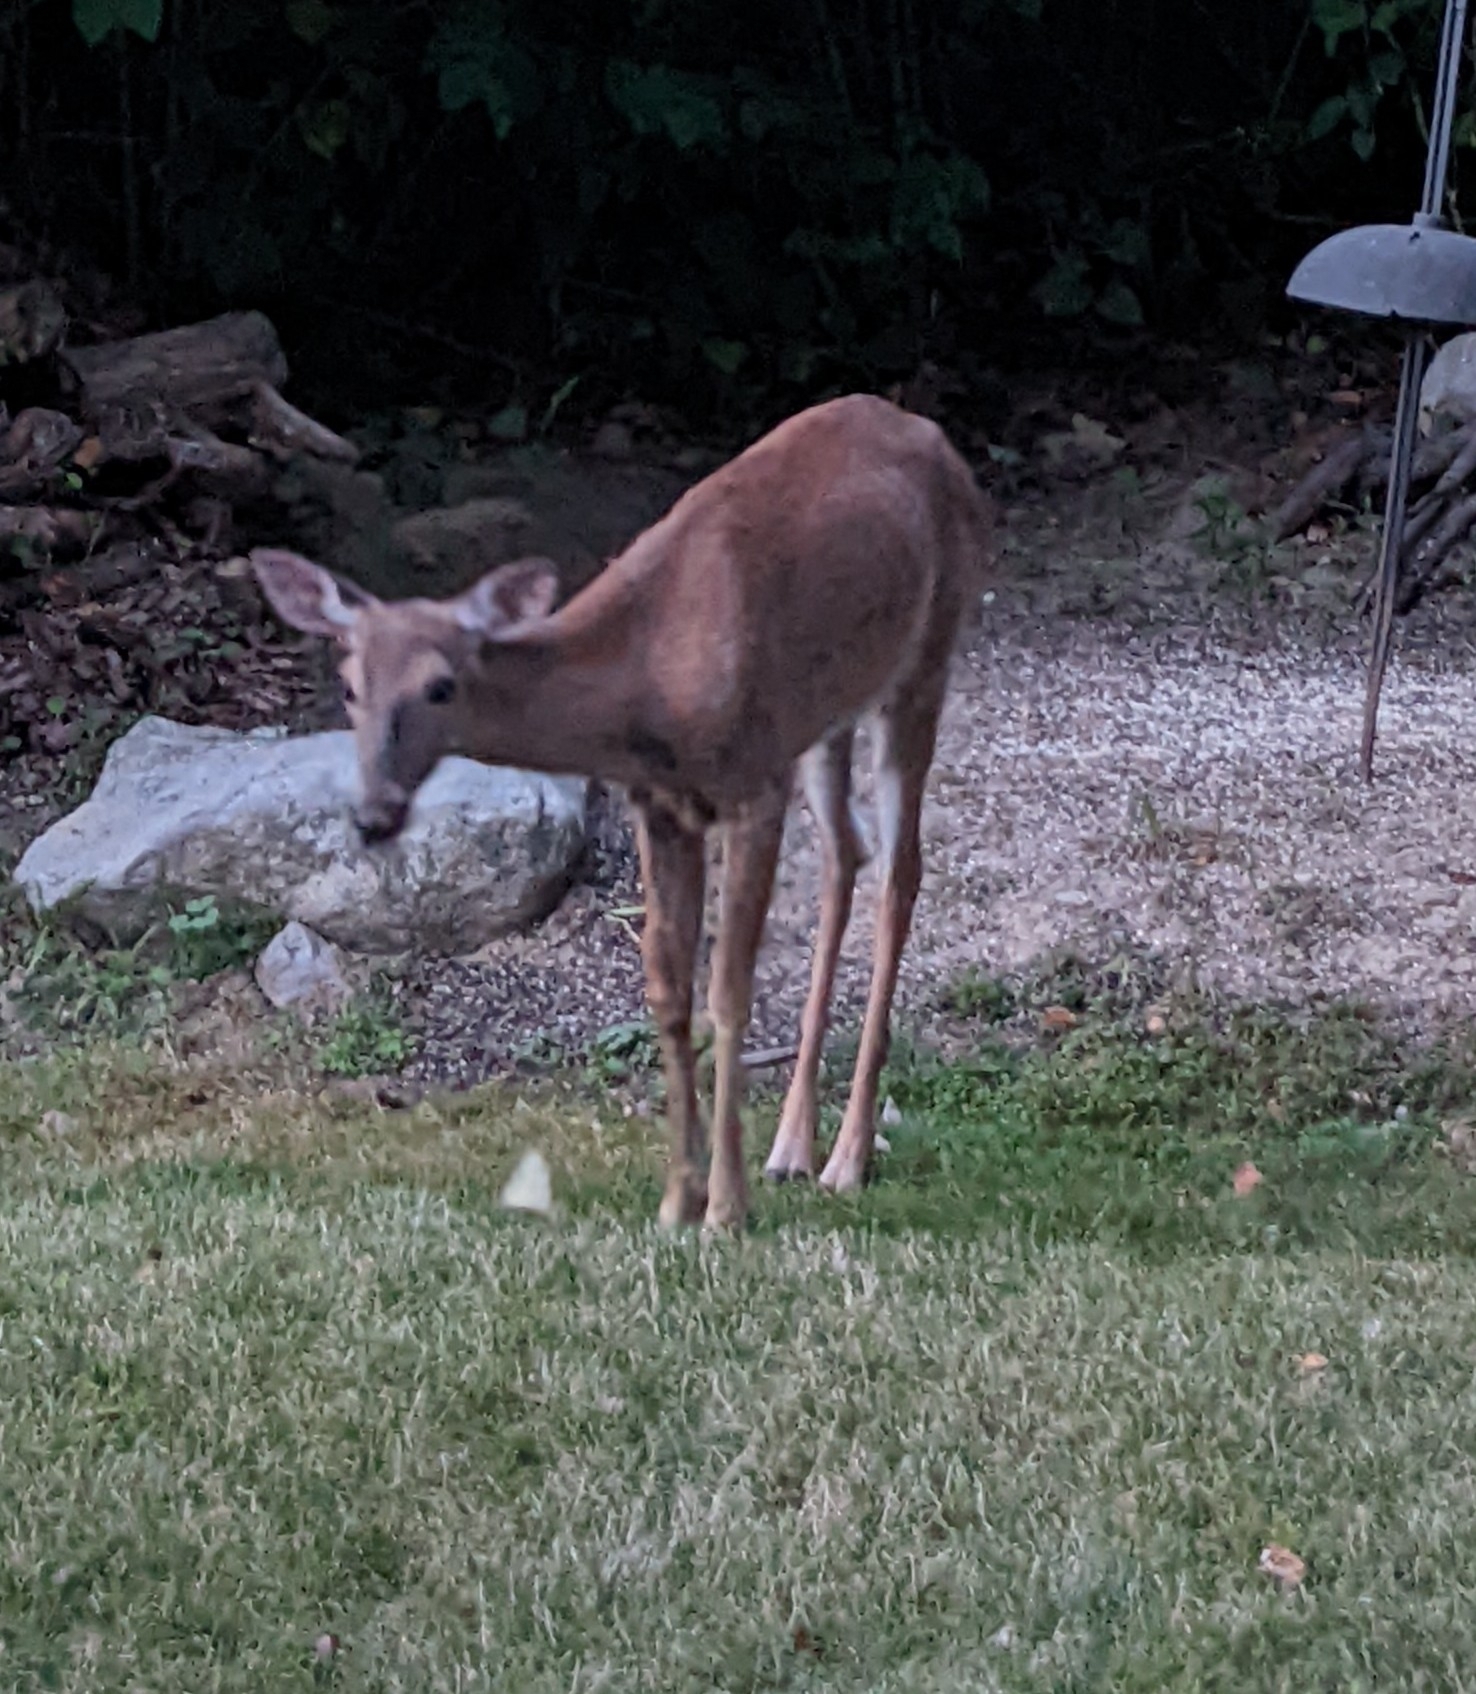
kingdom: Animalia
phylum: Chordata
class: Mammalia
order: Artiodactyla
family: Cervidae
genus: Odocoileus
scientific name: Odocoileus virginianus
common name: White-tailed deer
